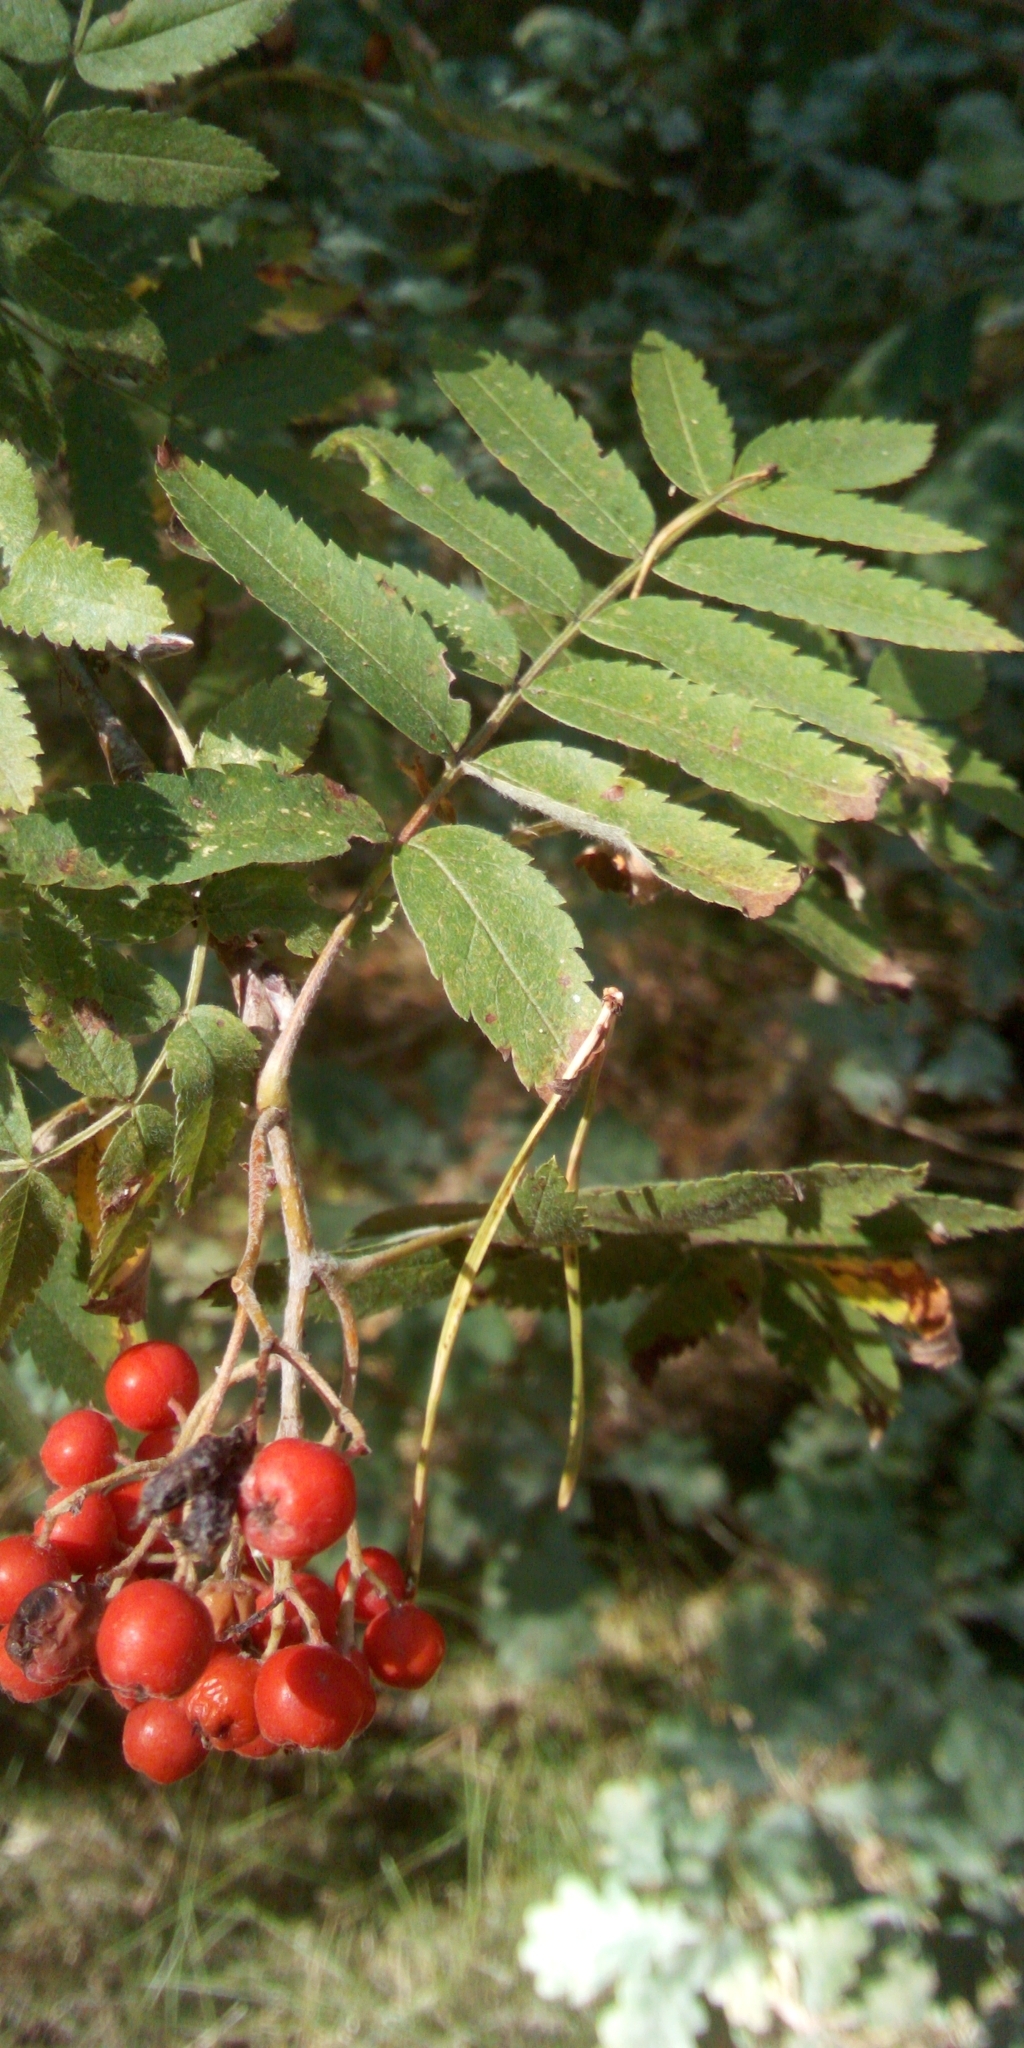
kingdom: Plantae
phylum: Tracheophyta
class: Magnoliopsida
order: Rosales
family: Rosaceae
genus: Sorbus
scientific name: Sorbus aucuparia
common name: Rowan
